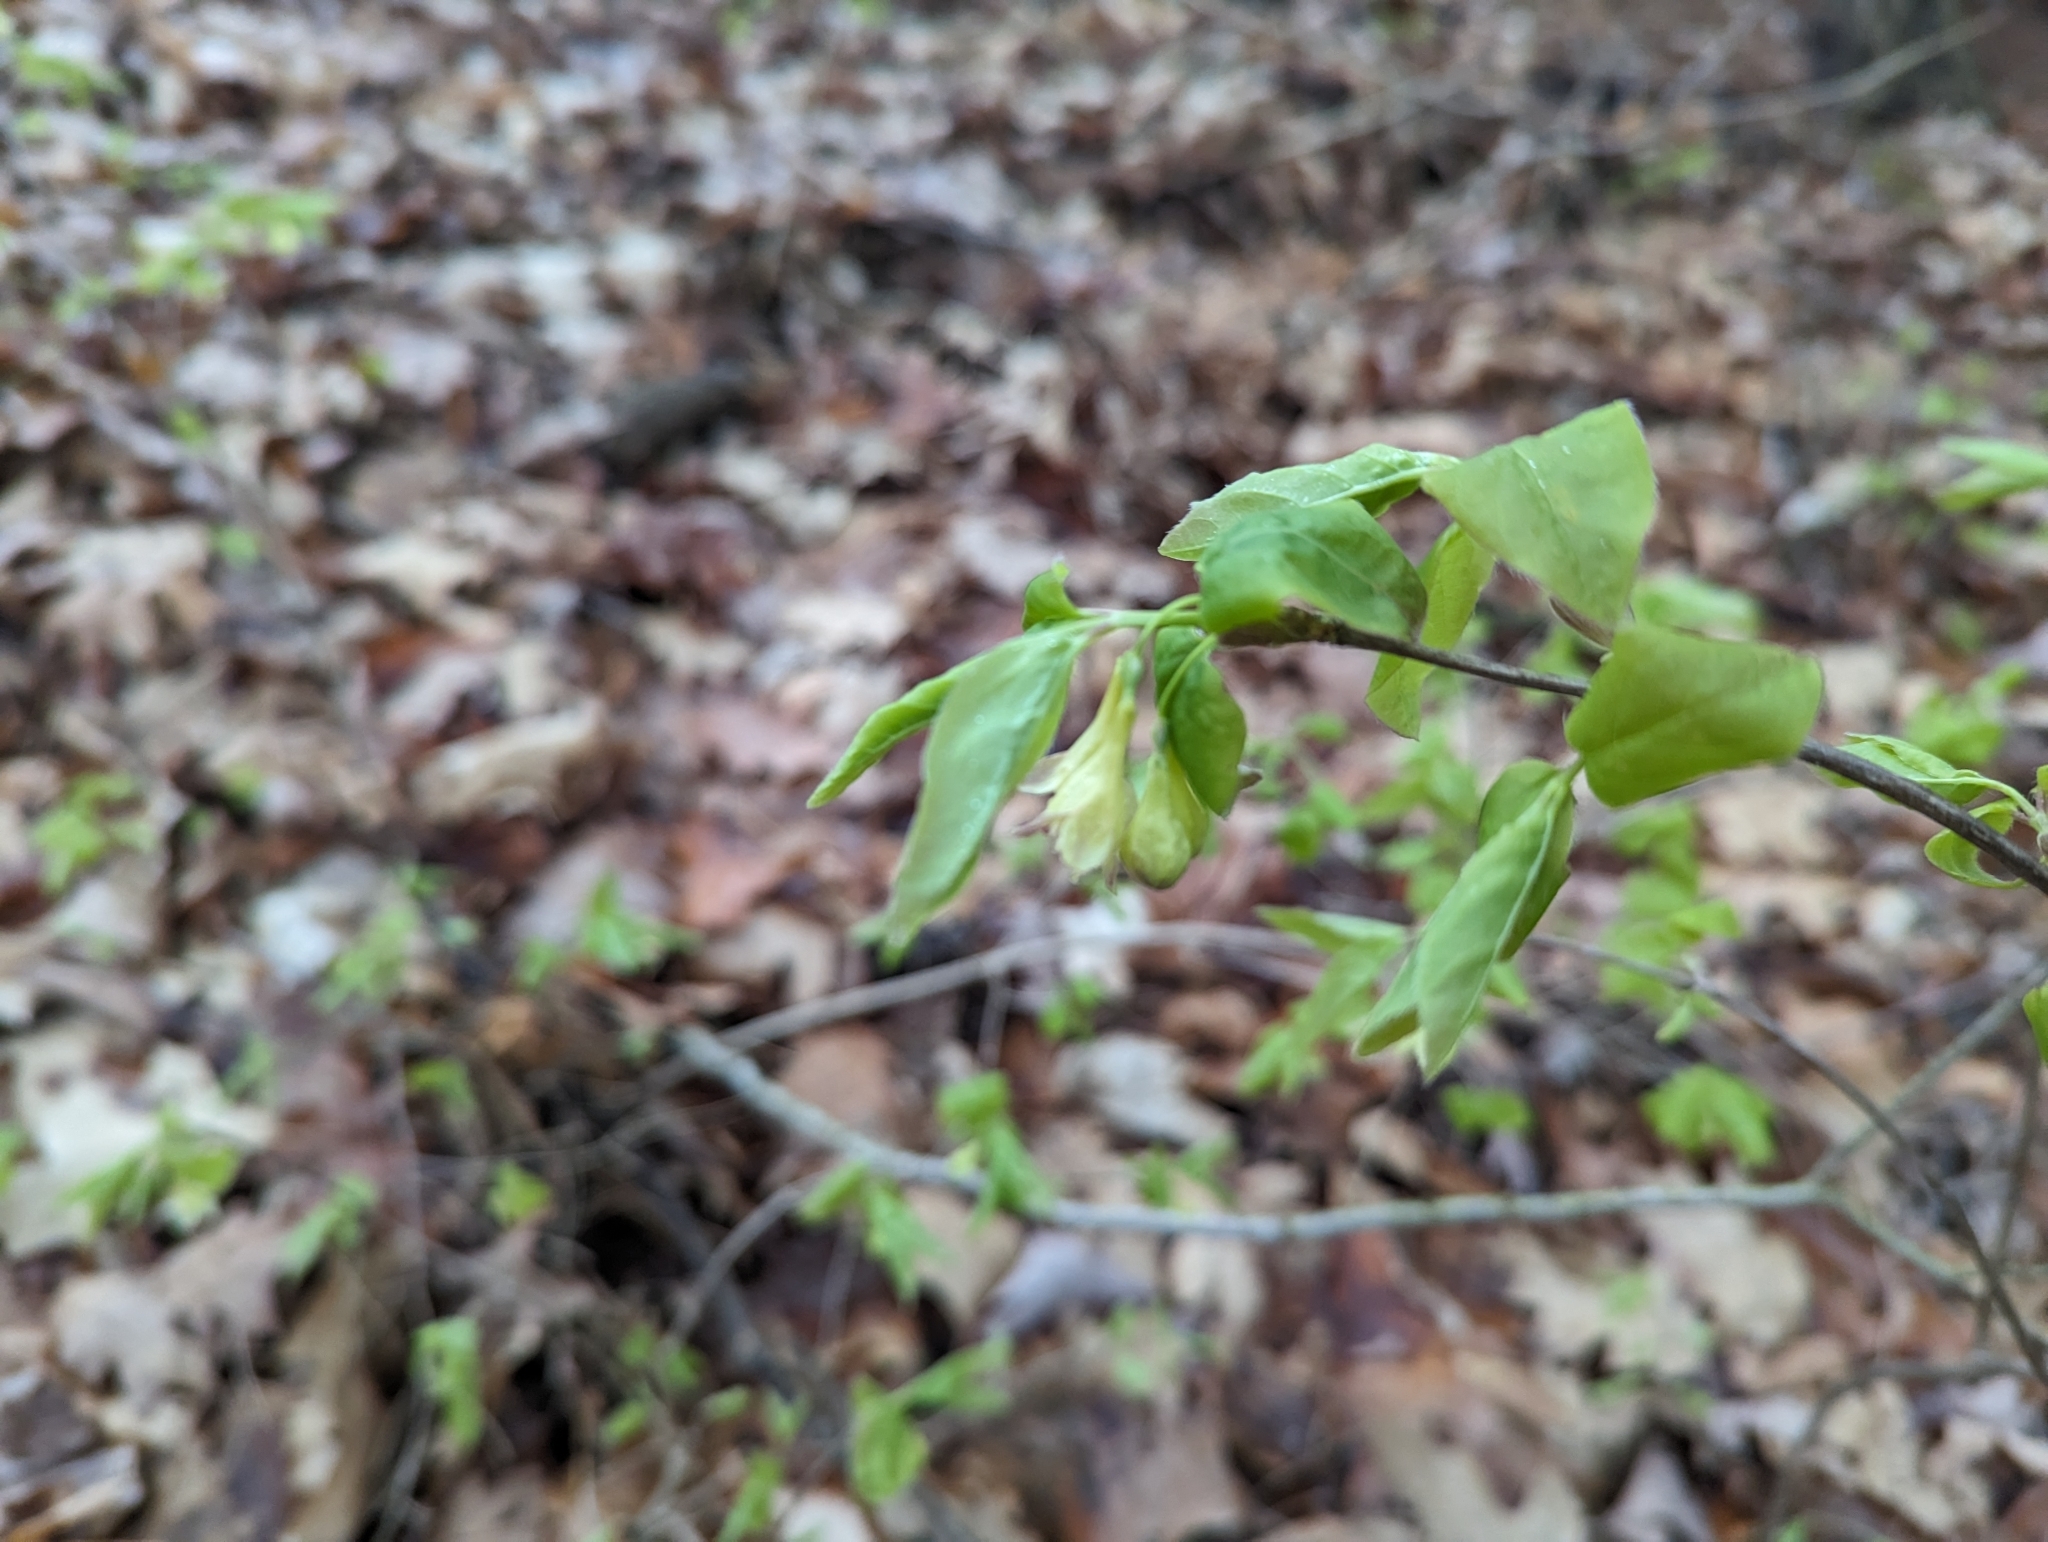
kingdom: Plantae
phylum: Tracheophyta
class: Magnoliopsida
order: Dipsacales
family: Caprifoliaceae
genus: Lonicera
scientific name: Lonicera canadensis
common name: American fly-honeysuckle
